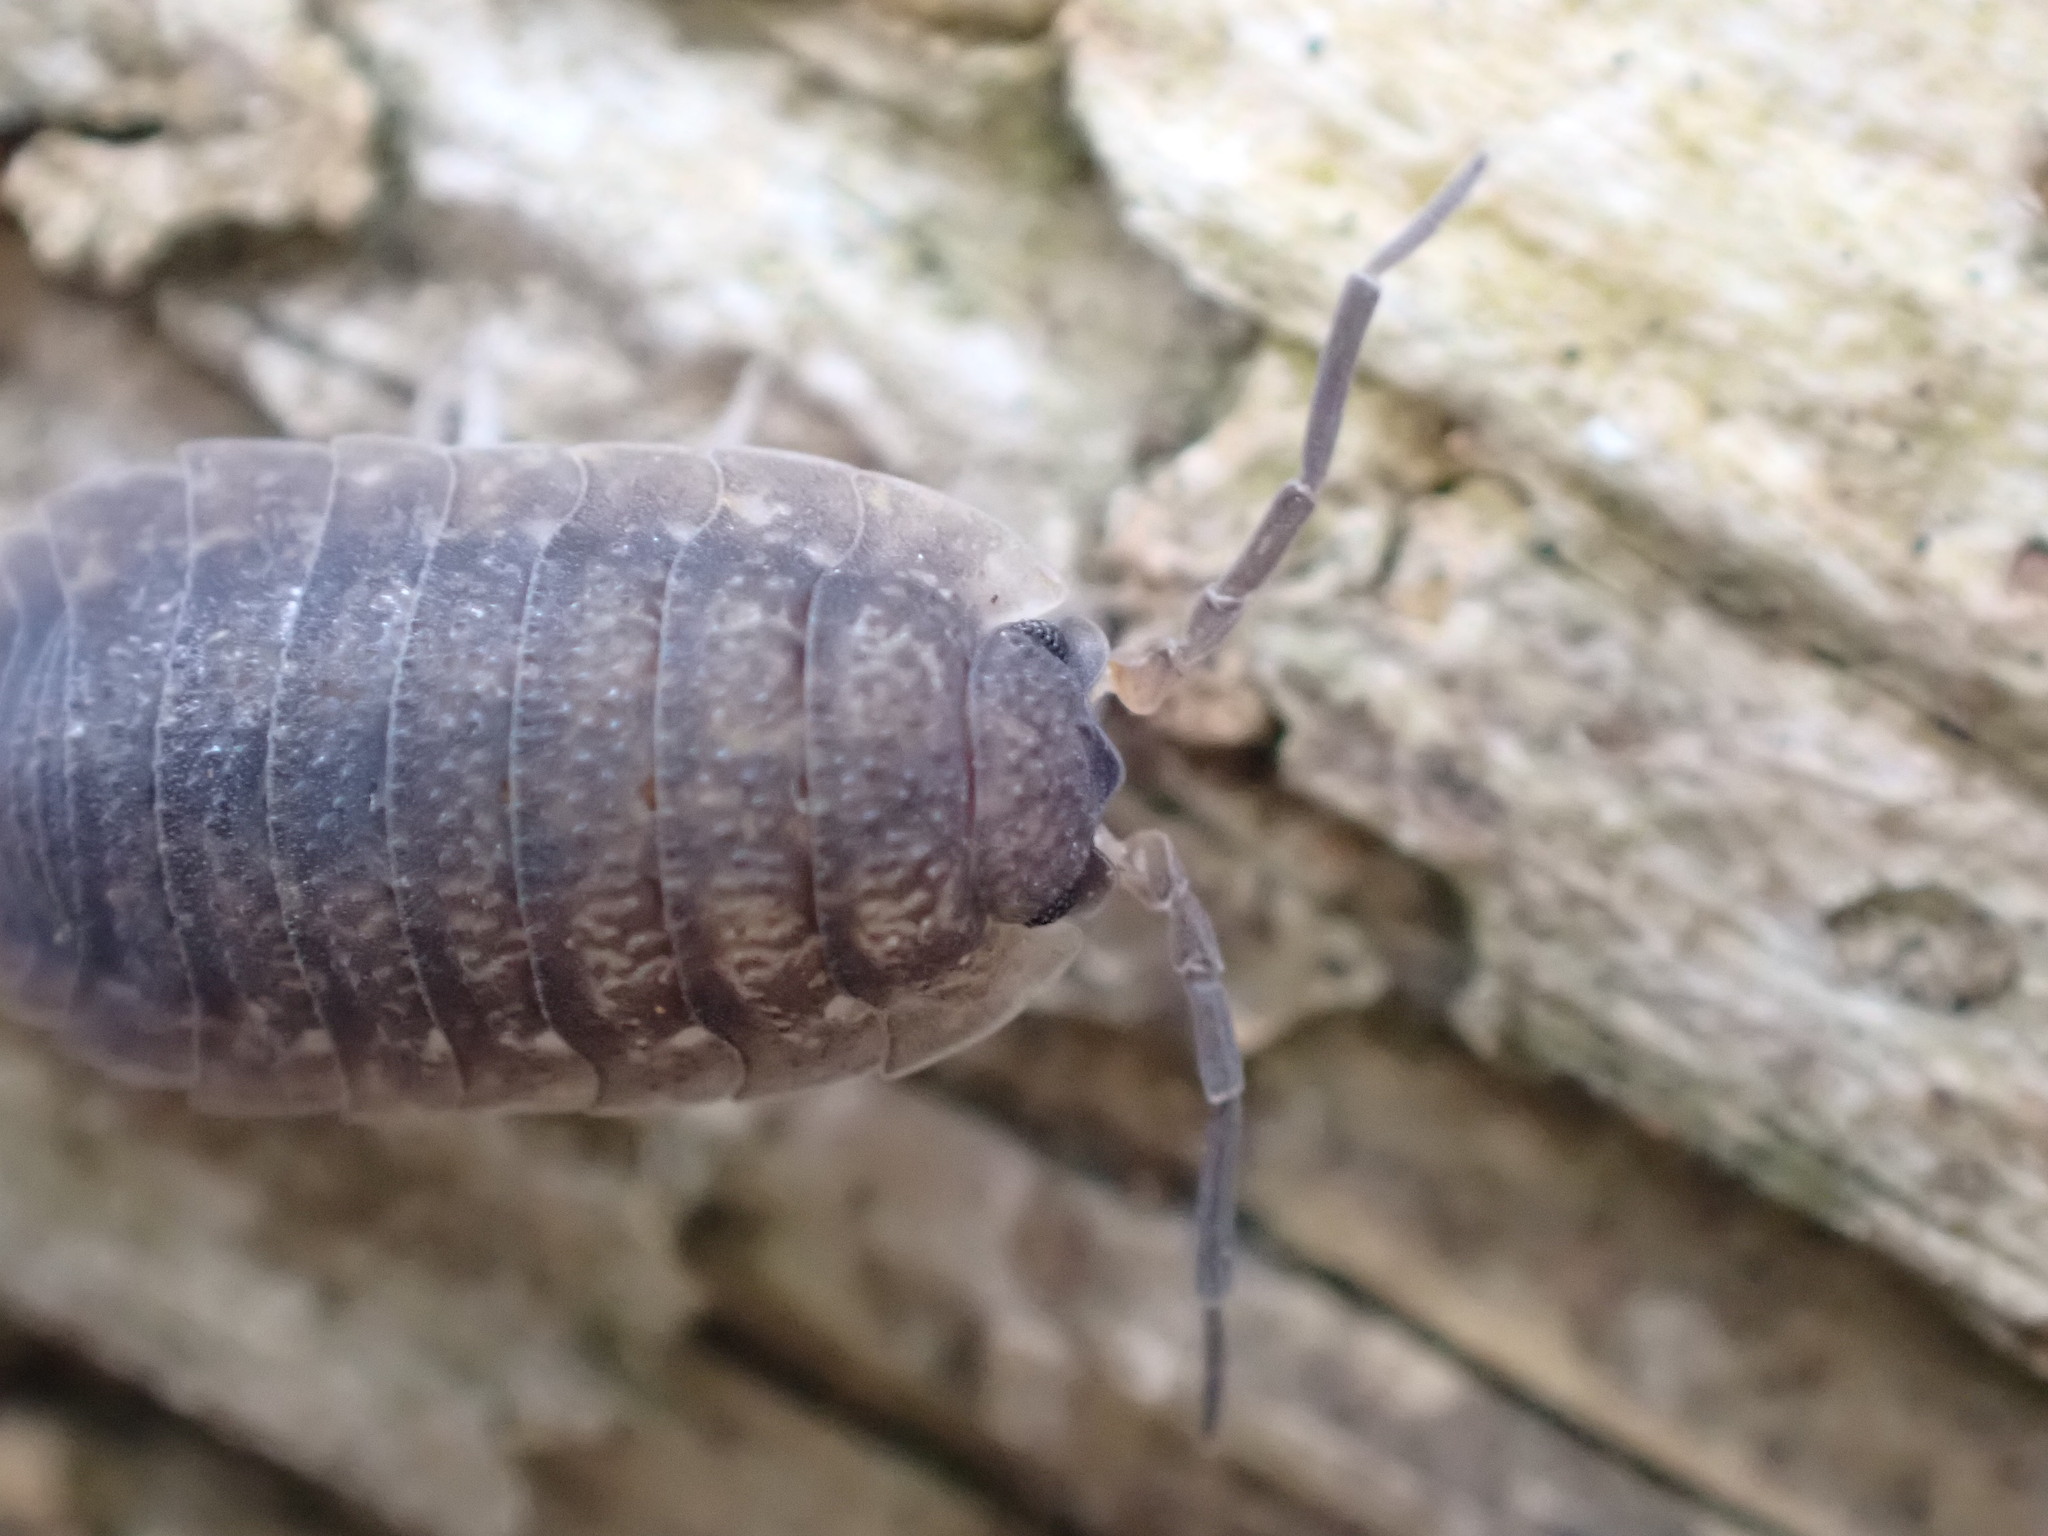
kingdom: Animalia
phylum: Arthropoda
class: Malacostraca
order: Isopoda
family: Porcellionidae
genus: Porcellio
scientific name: Porcellio scaber
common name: Common rough woodlouse
